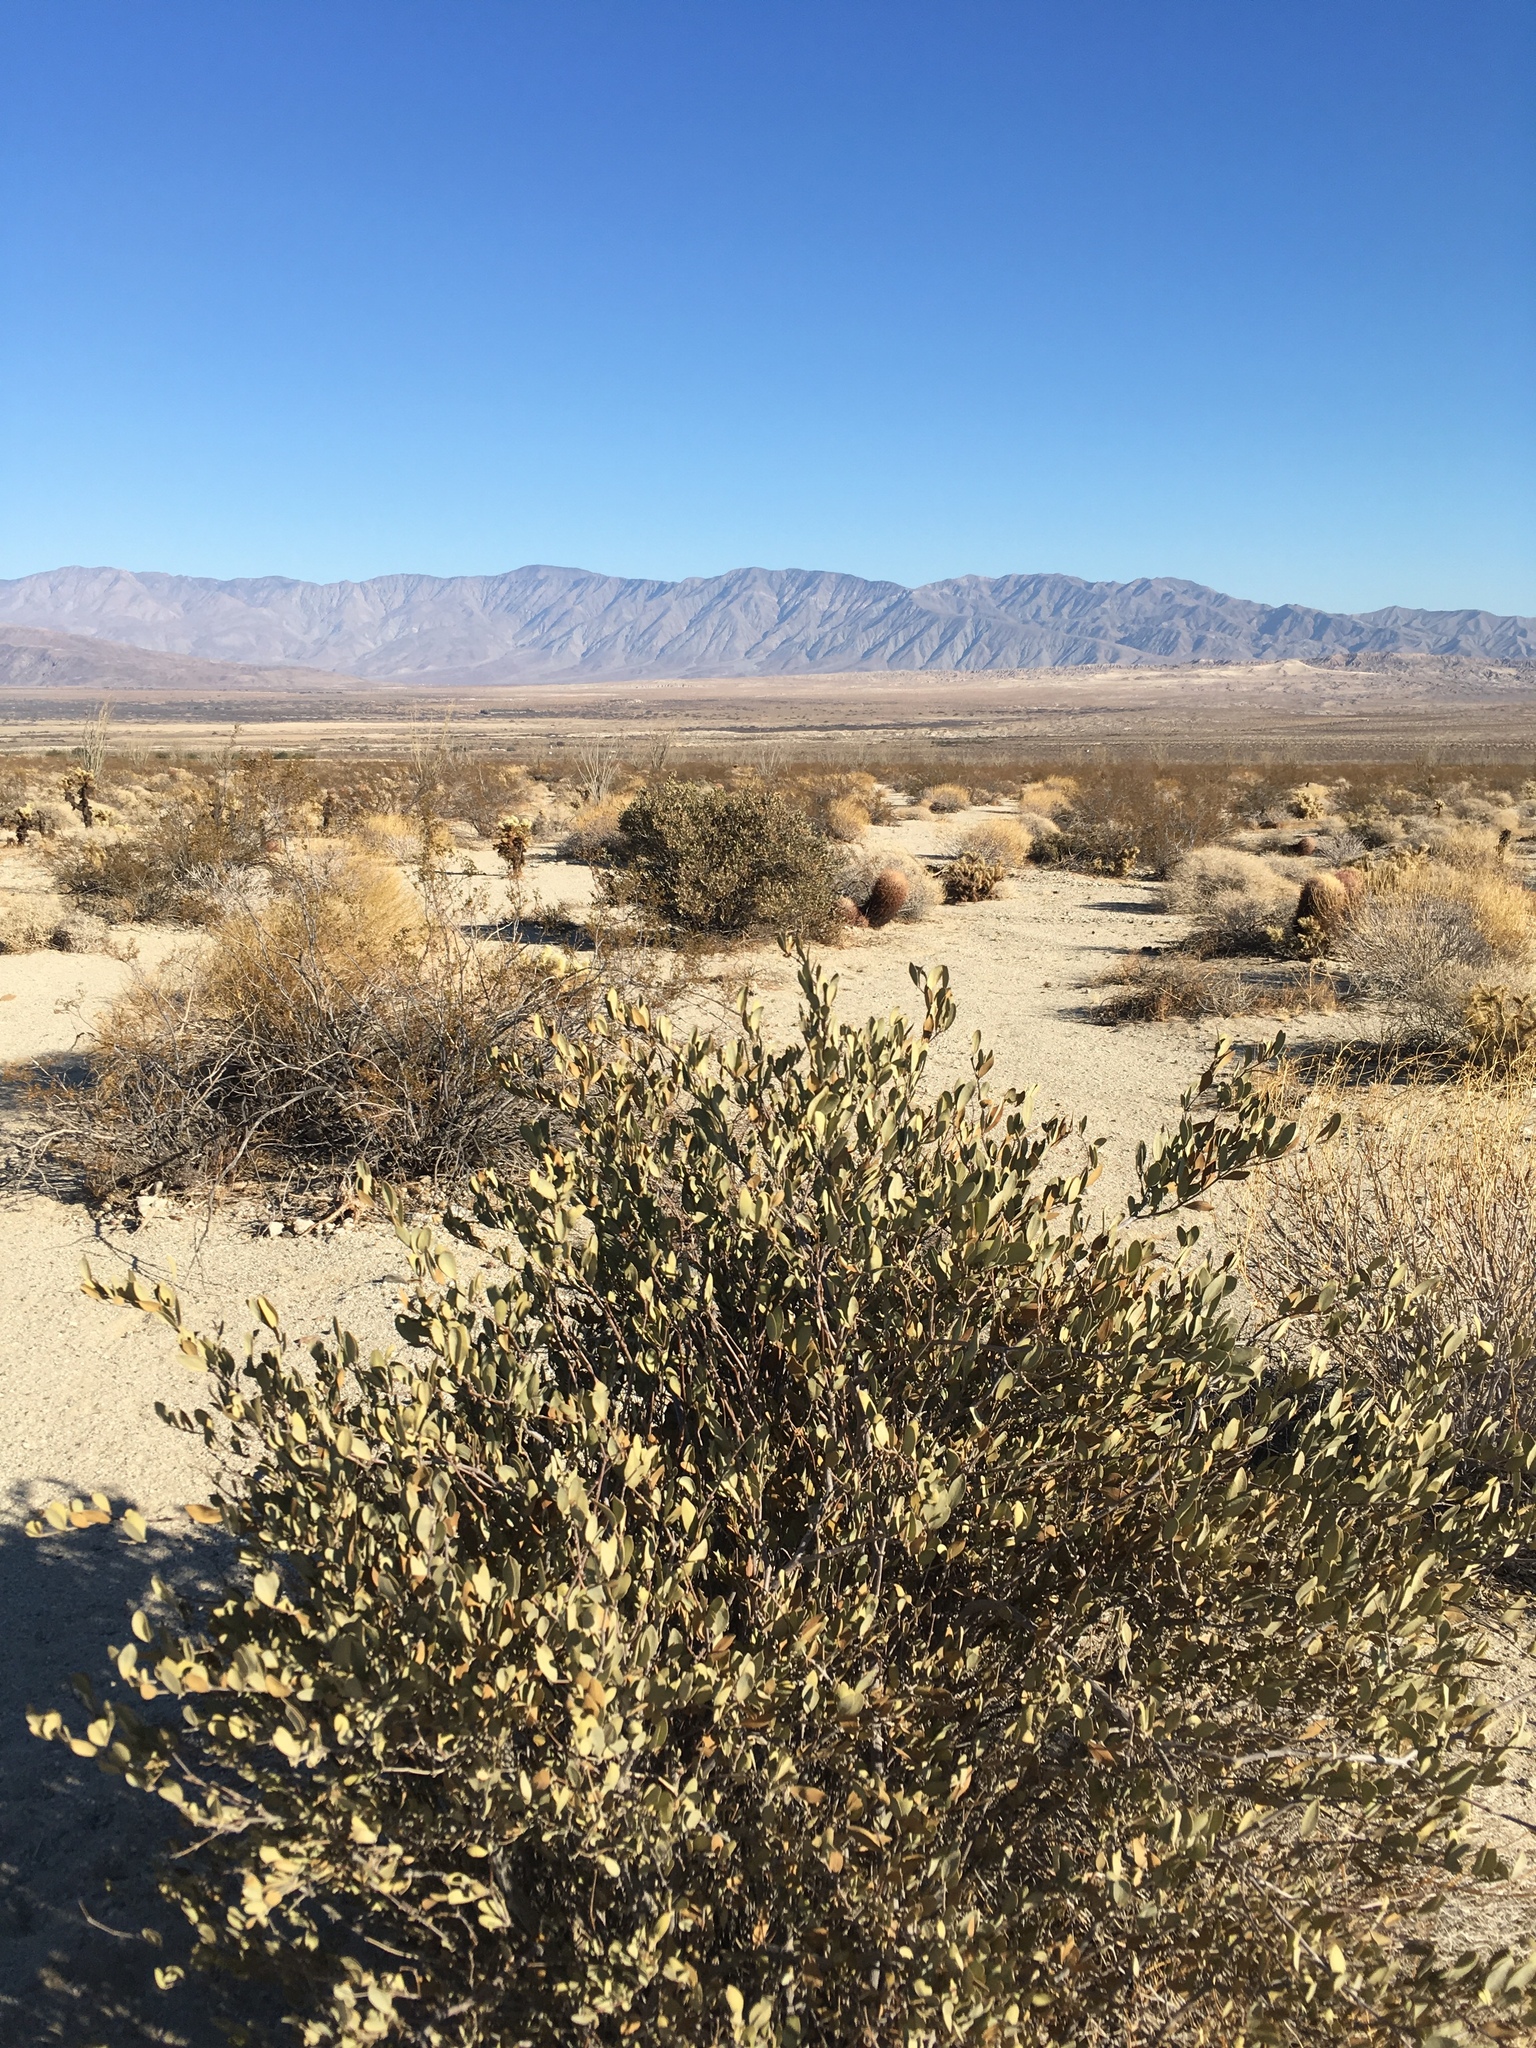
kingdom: Plantae
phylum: Tracheophyta
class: Magnoliopsida
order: Caryophyllales
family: Simmondsiaceae
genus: Simmondsia
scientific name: Simmondsia chinensis
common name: Jojoba
